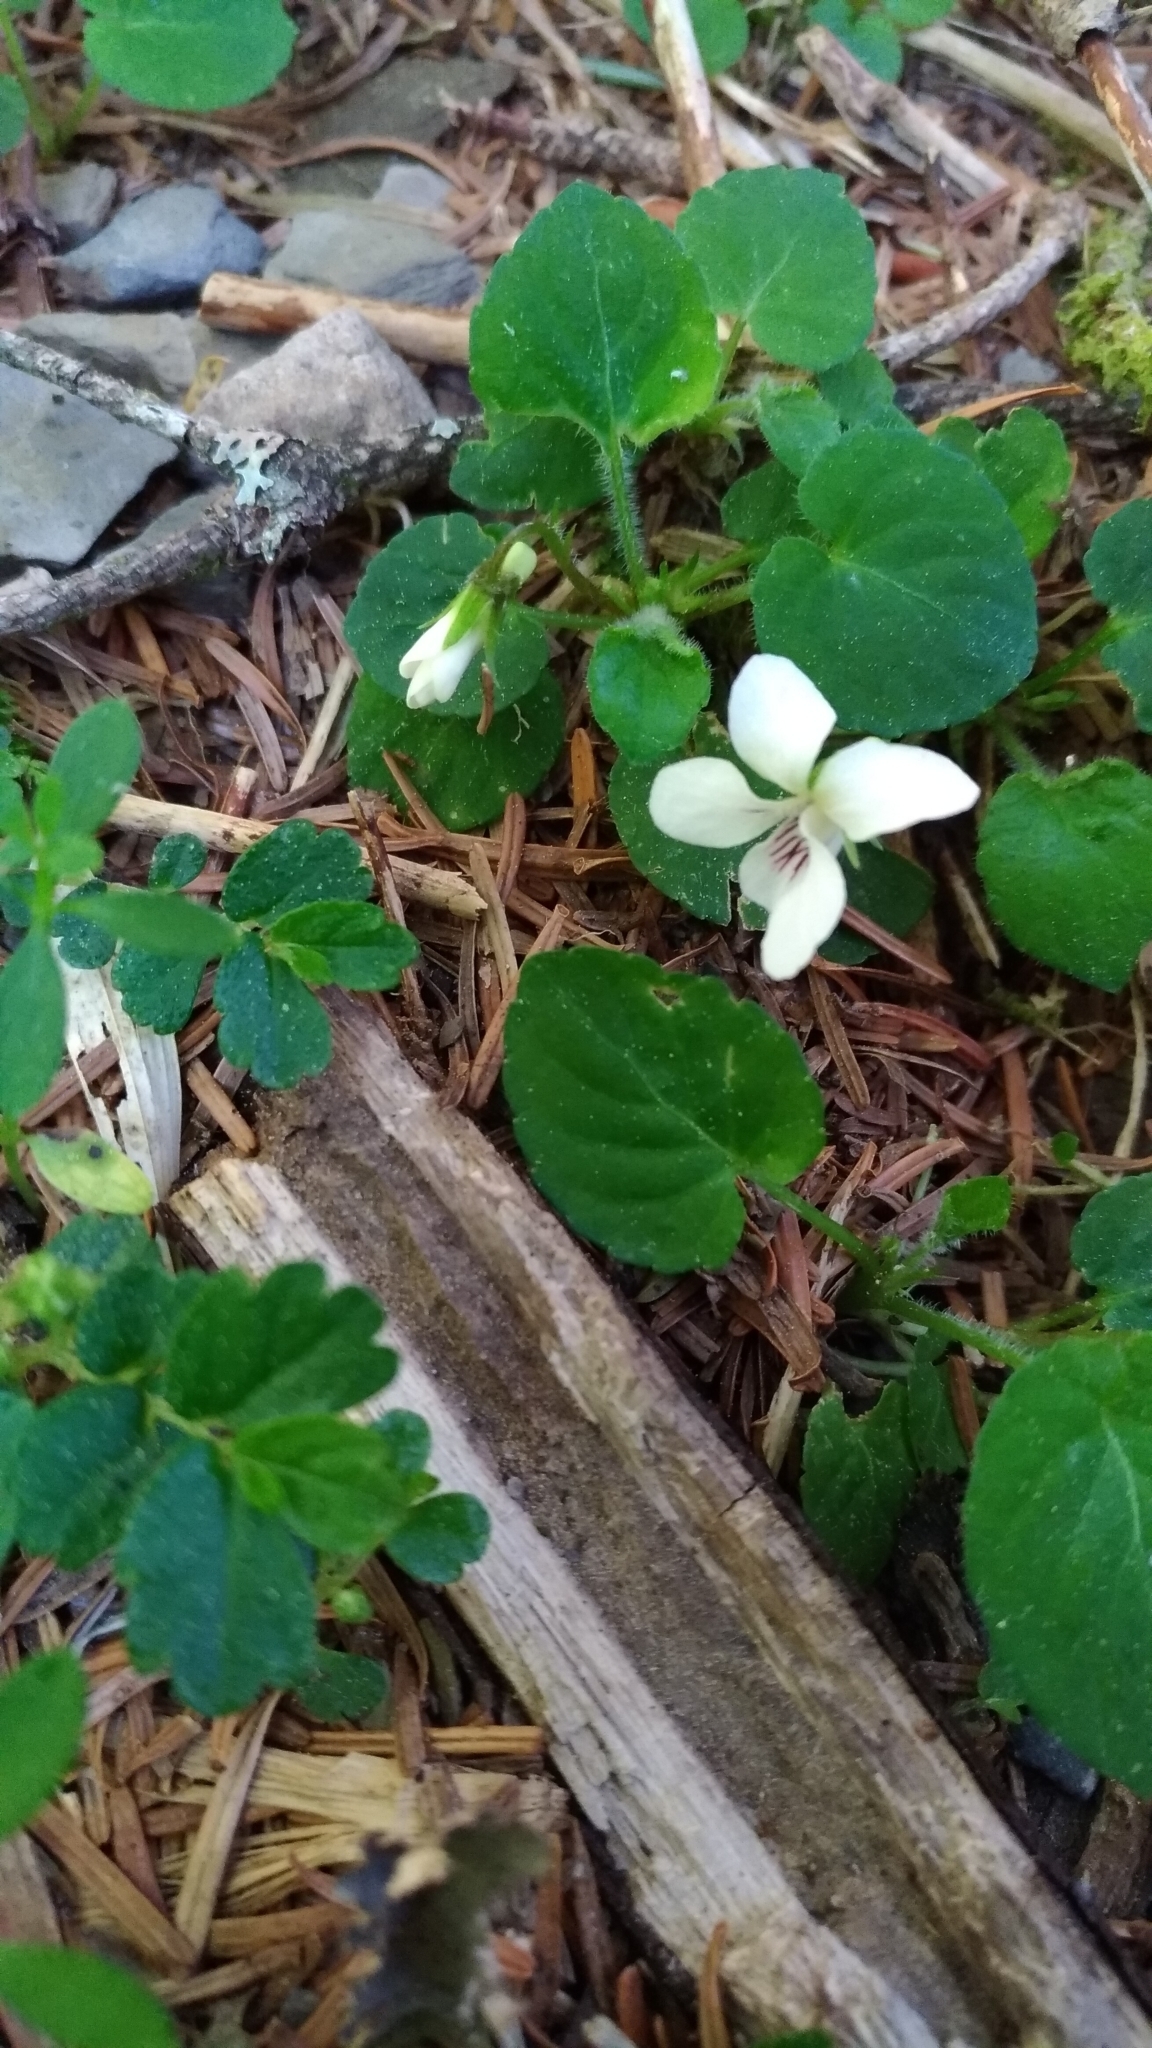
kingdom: Plantae
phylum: Tracheophyta
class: Magnoliopsida
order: Malpighiales
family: Violaceae
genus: Viola
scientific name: Viola adenothrix
